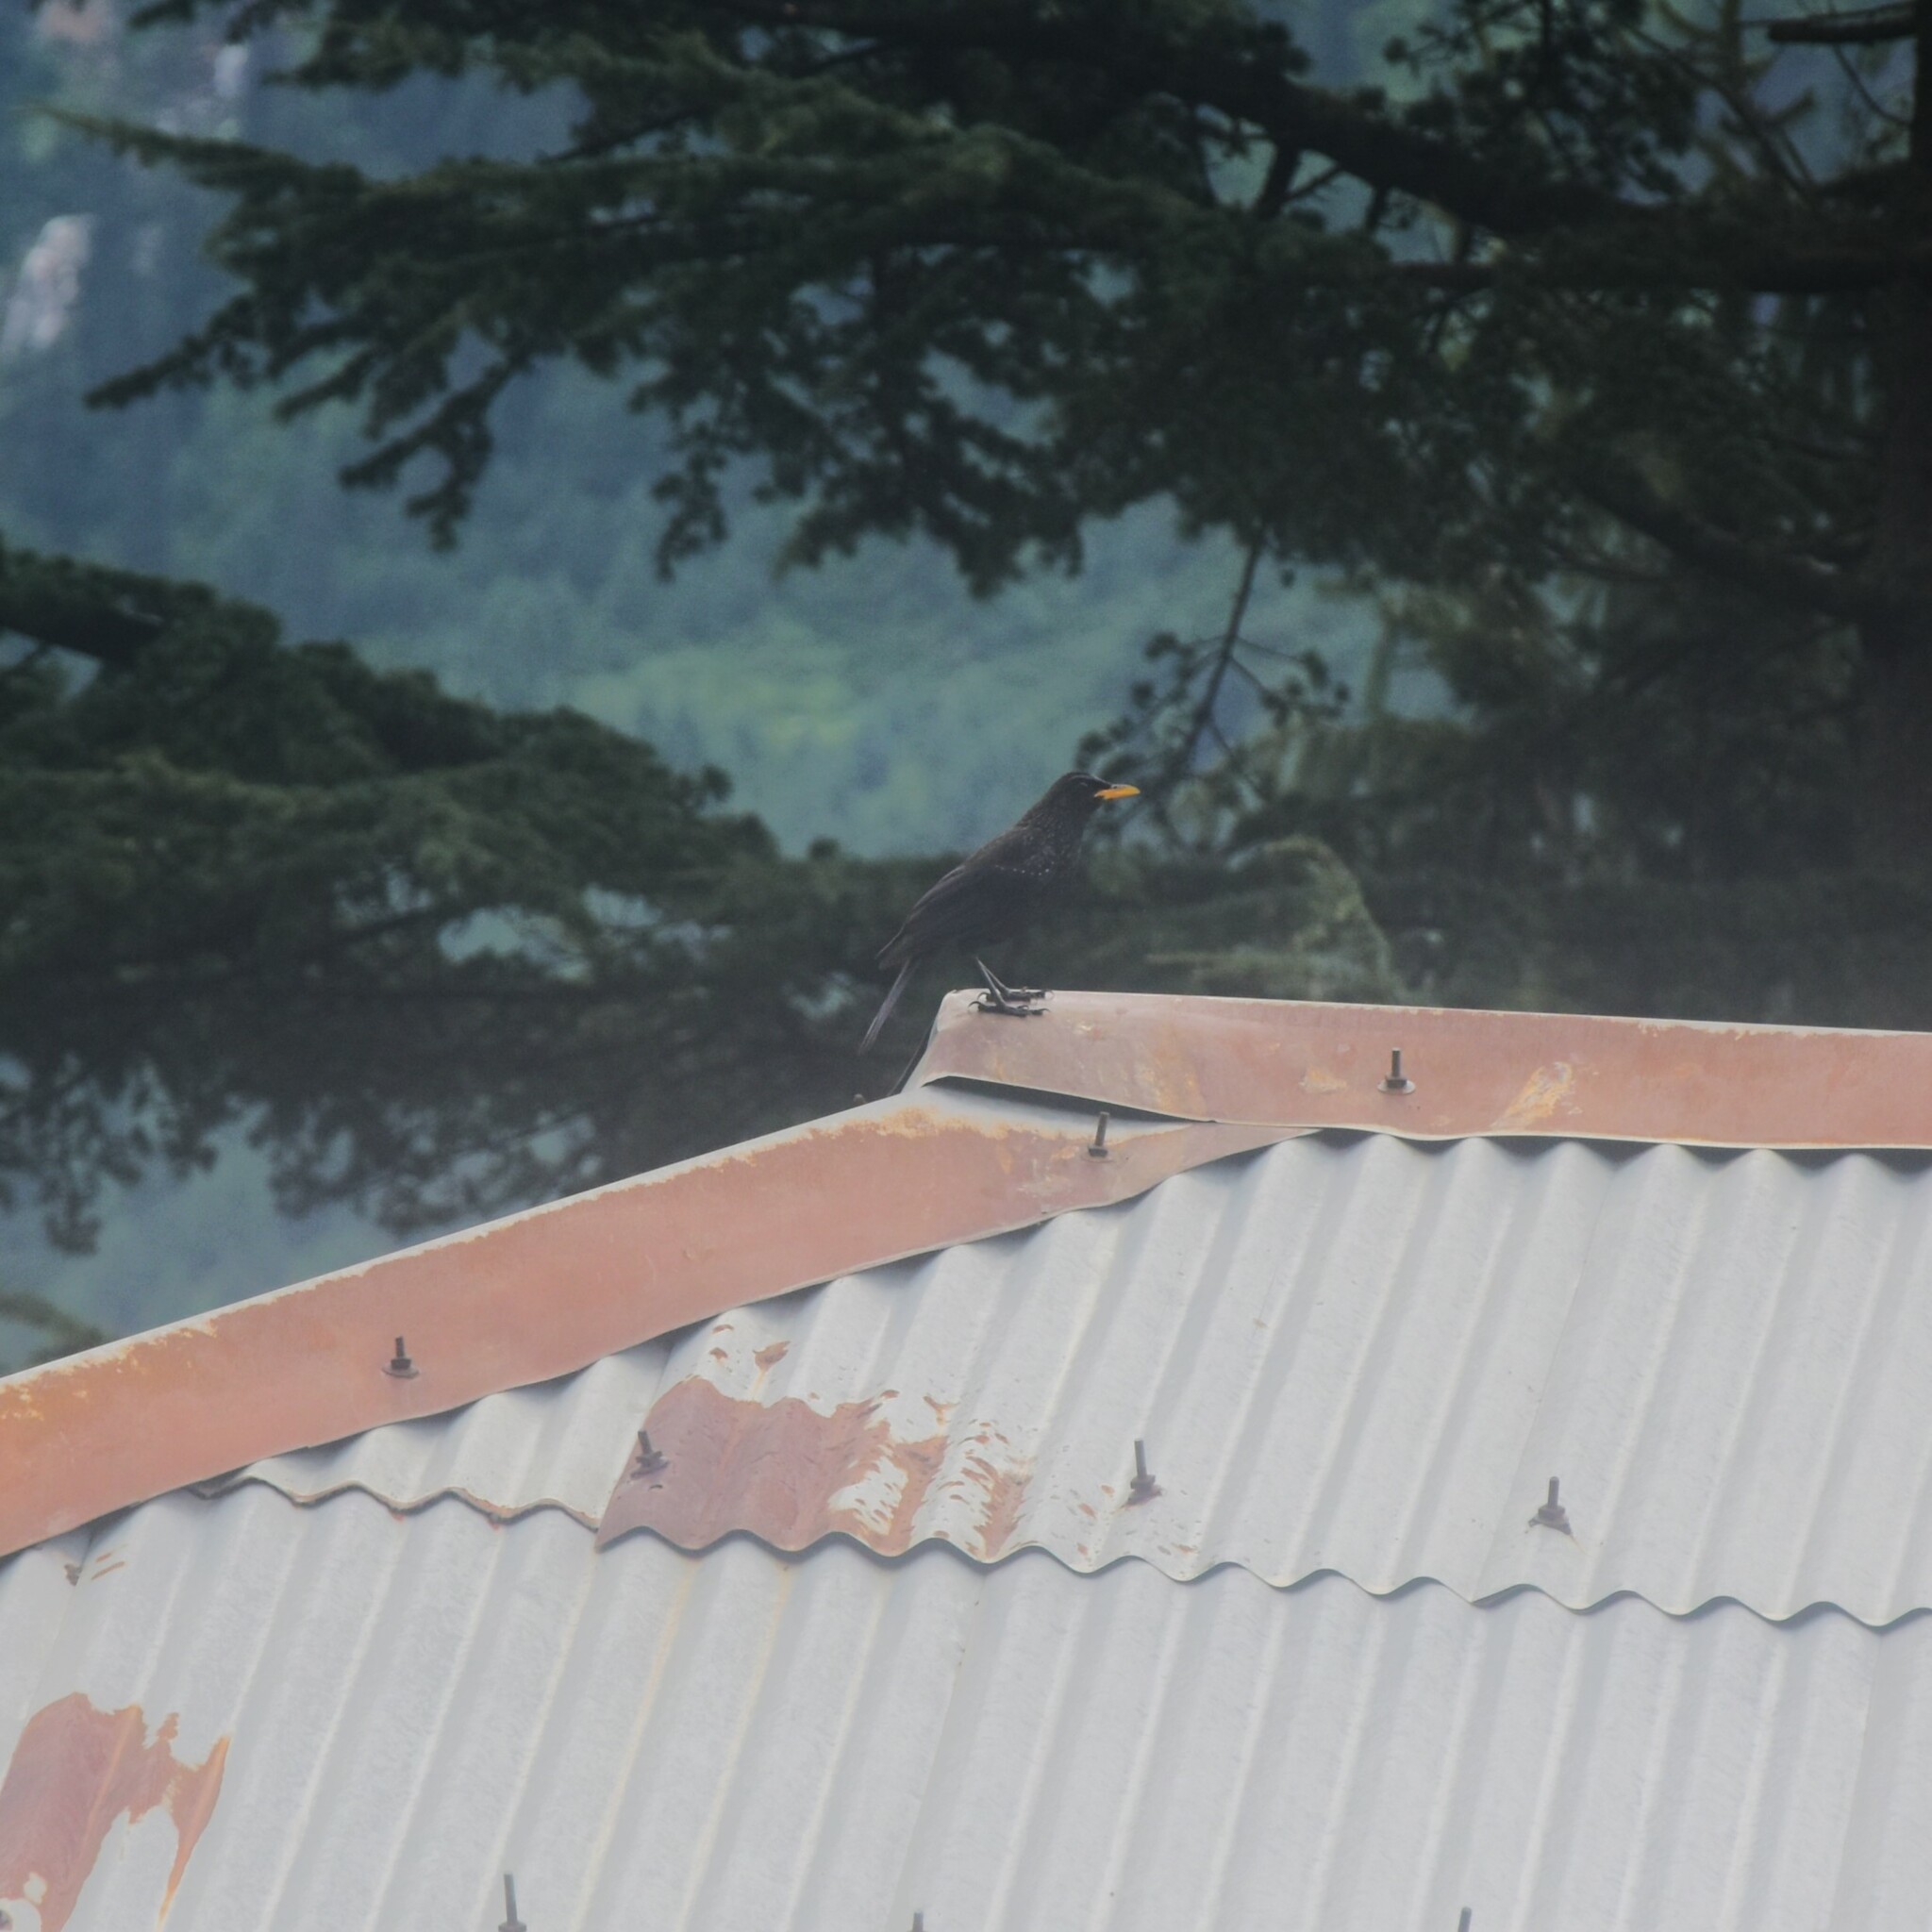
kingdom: Animalia
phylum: Chordata
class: Aves
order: Passeriformes
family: Muscicapidae
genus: Myophonus
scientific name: Myophonus caeruleus
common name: Blue whistling-thrush
